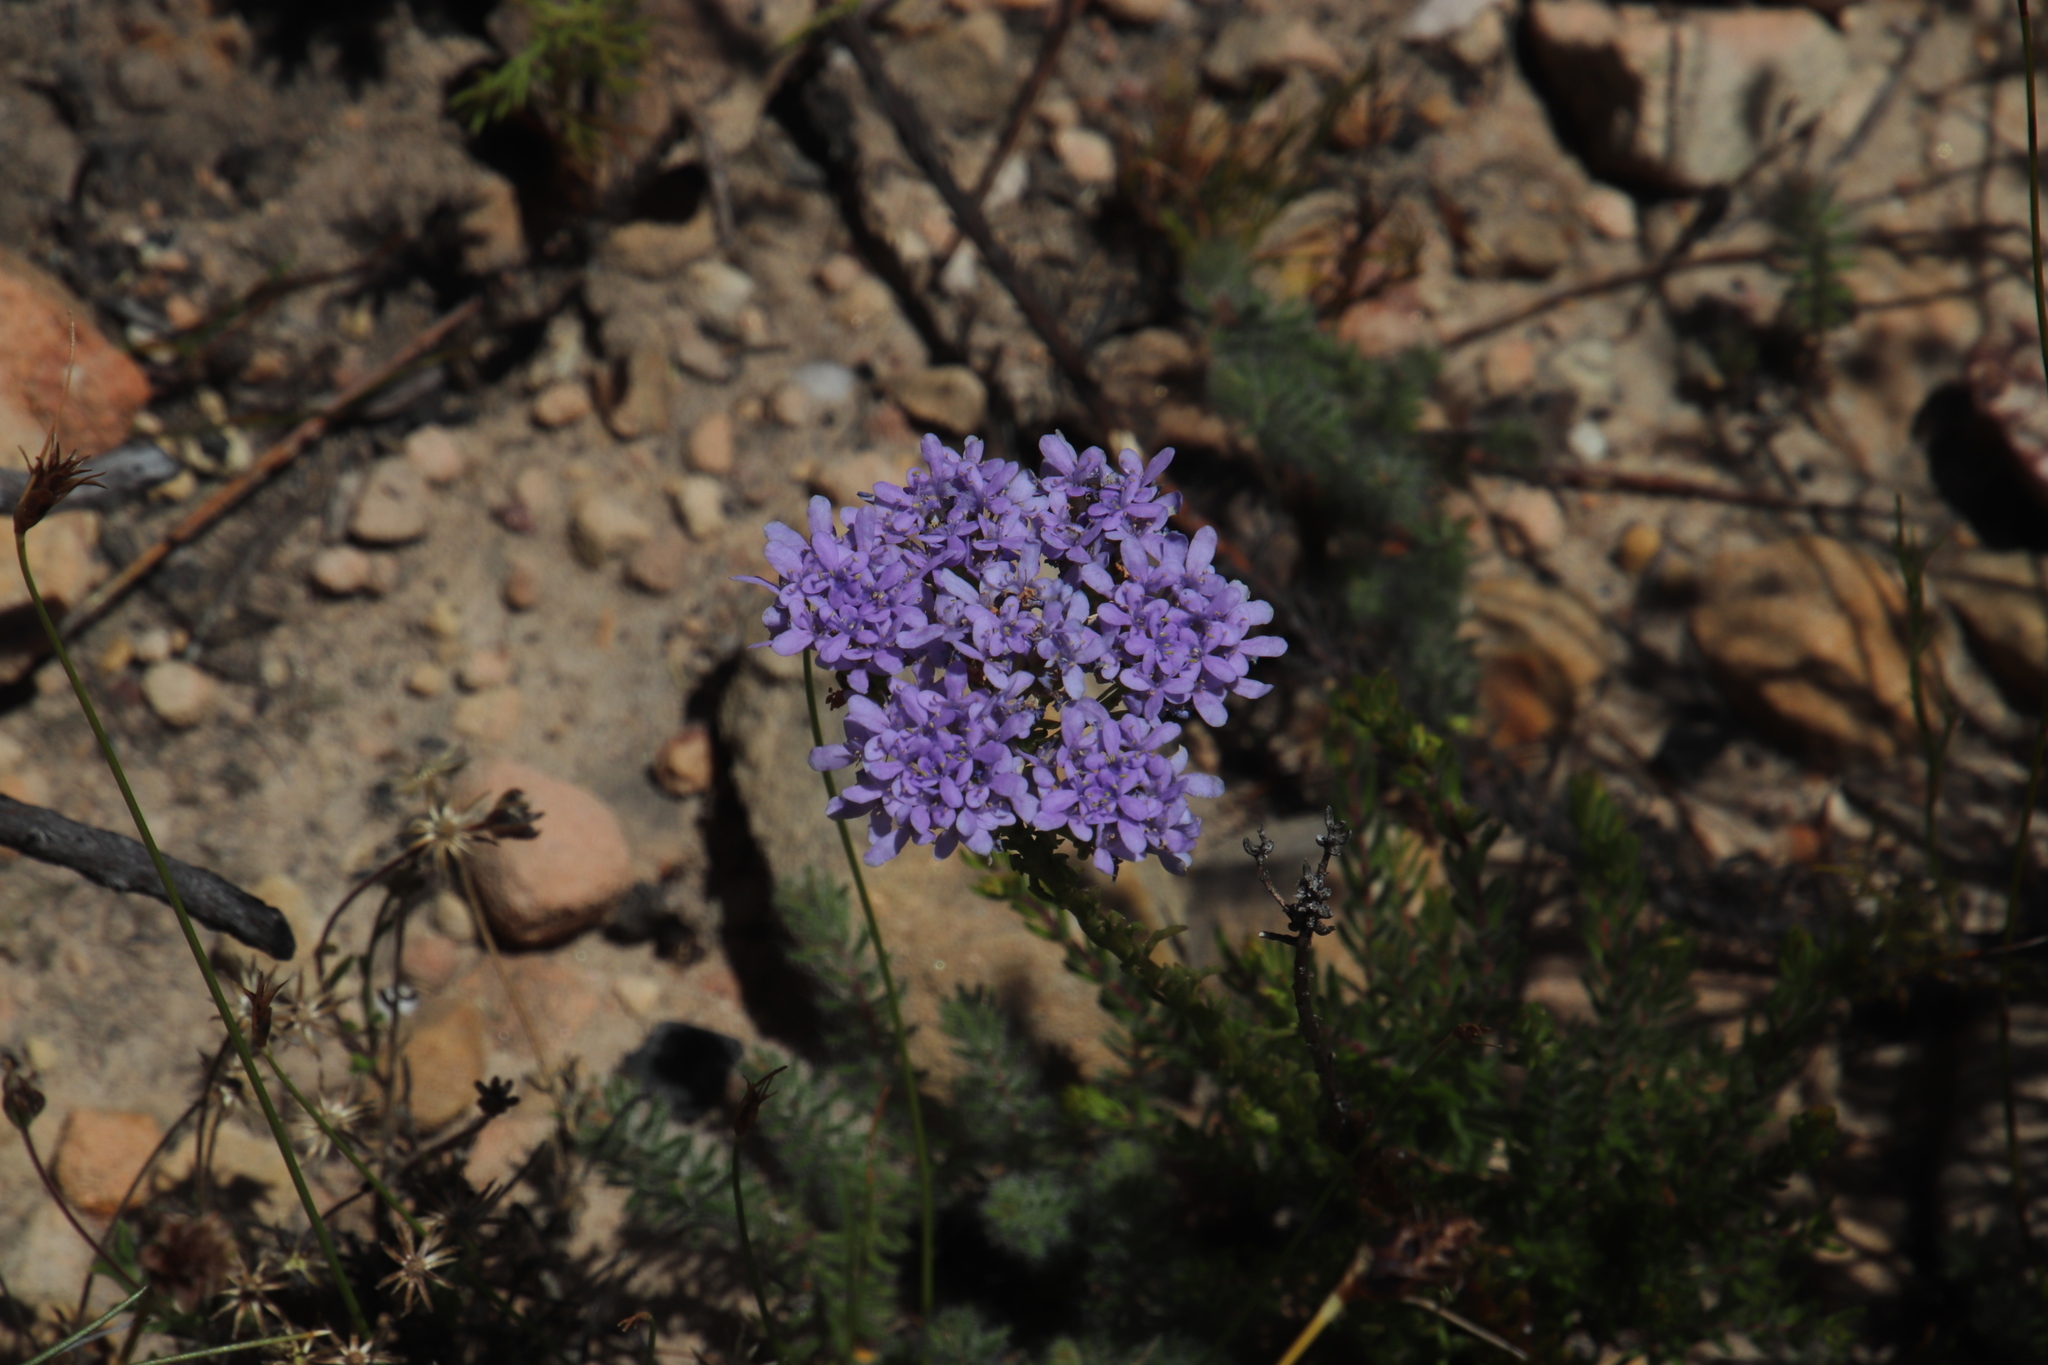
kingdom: Plantae
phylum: Tracheophyta
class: Magnoliopsida
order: Lamiales
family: Scrophulariaceae
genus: Pseudoselago
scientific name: Pseudoselago spuria
